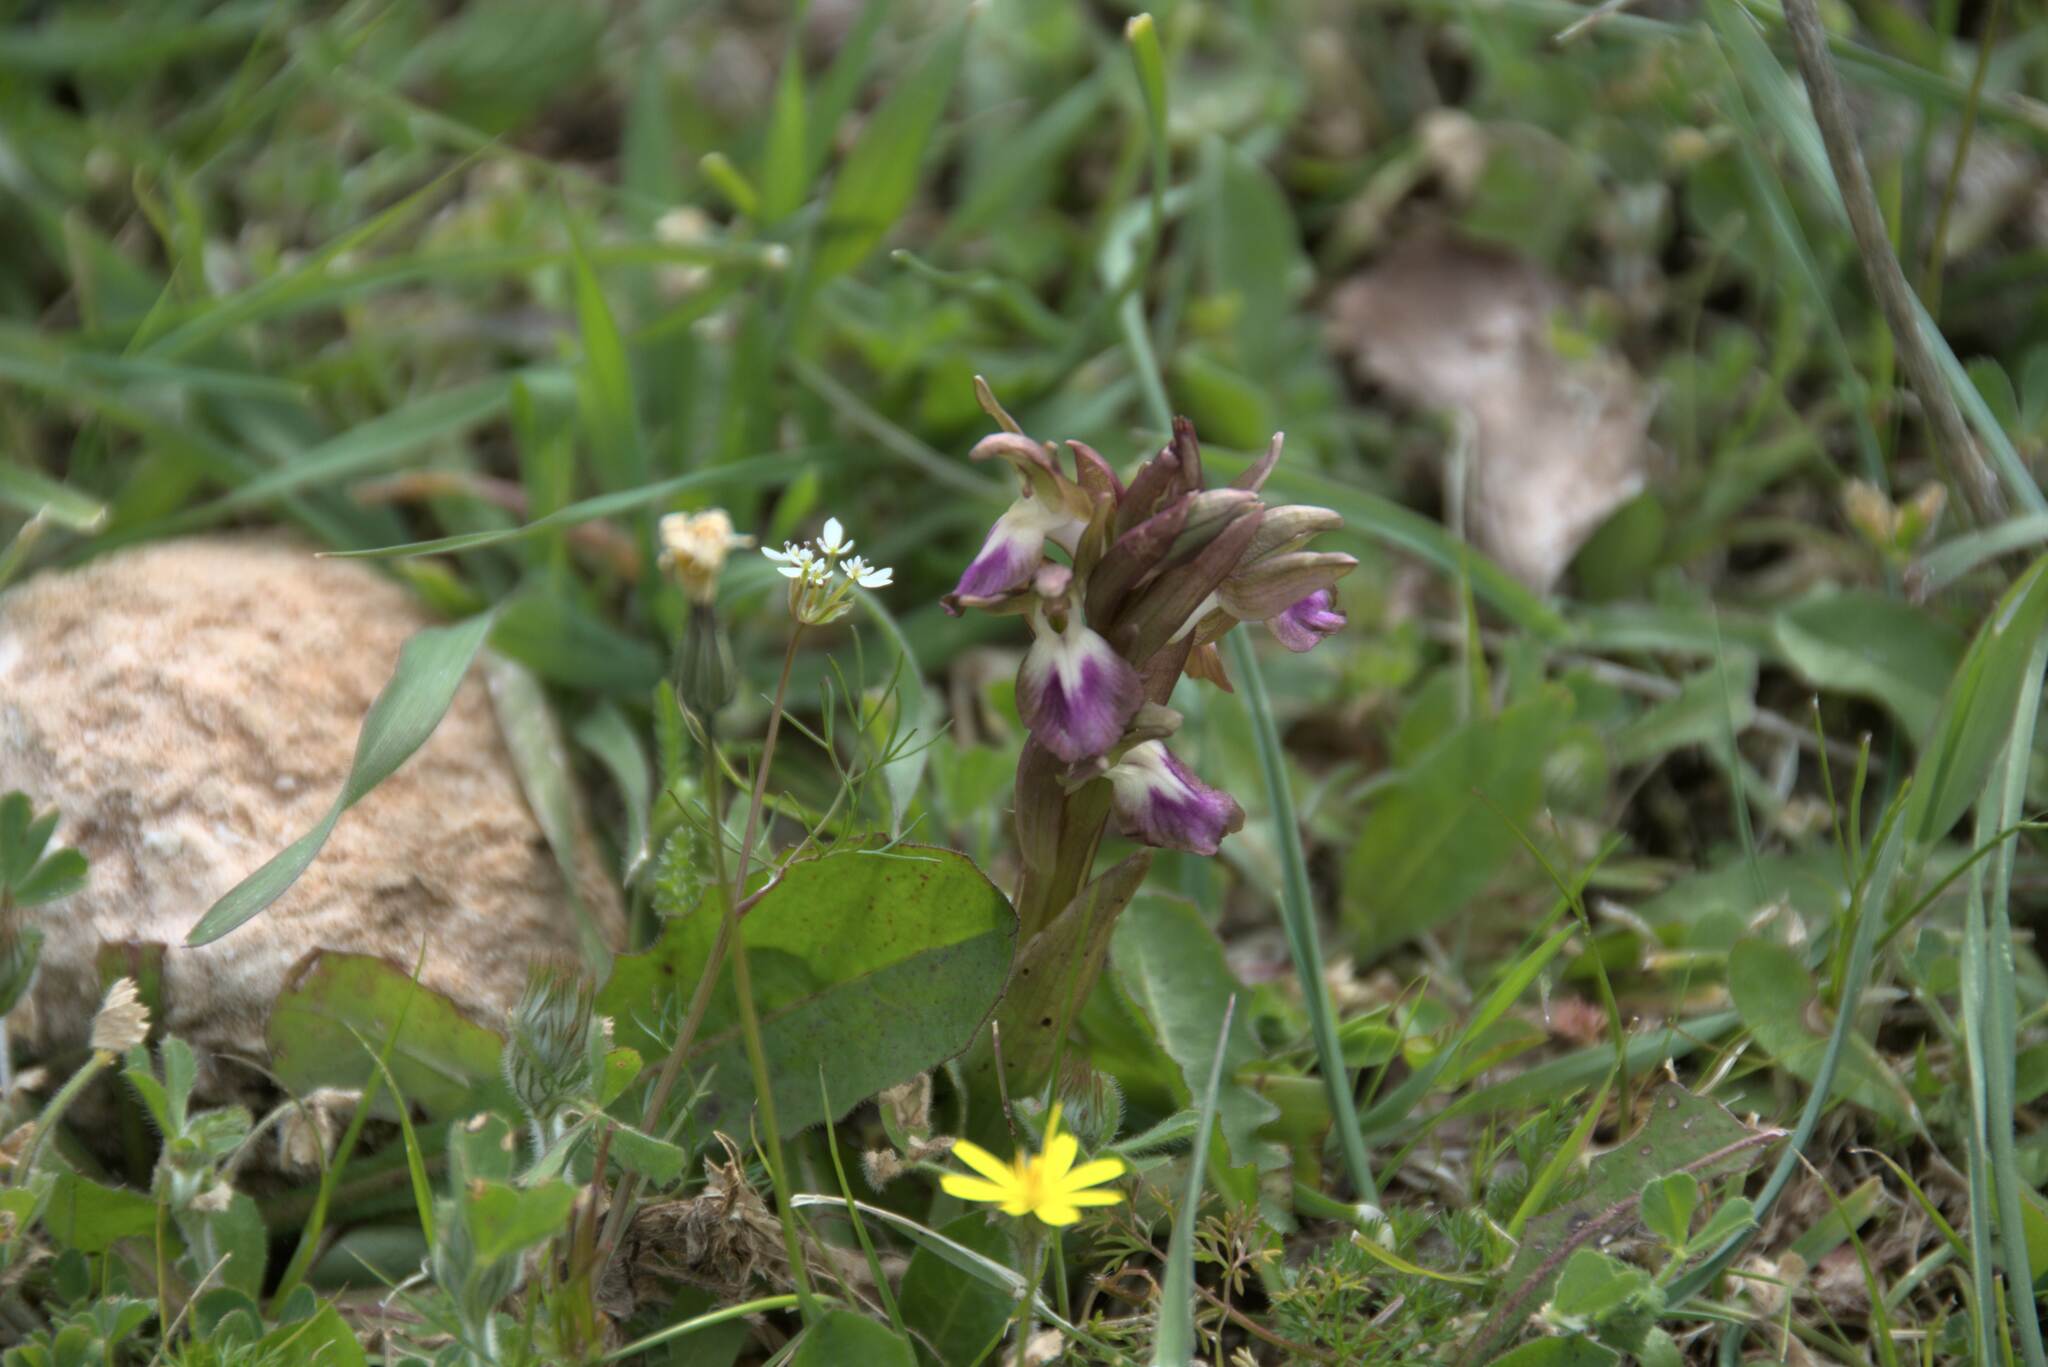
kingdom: Plantae
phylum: Tracheophyta
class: Liliopsida
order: Asparagales
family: Orchidaceae
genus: Anacamptis
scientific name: Anacamptis collina
